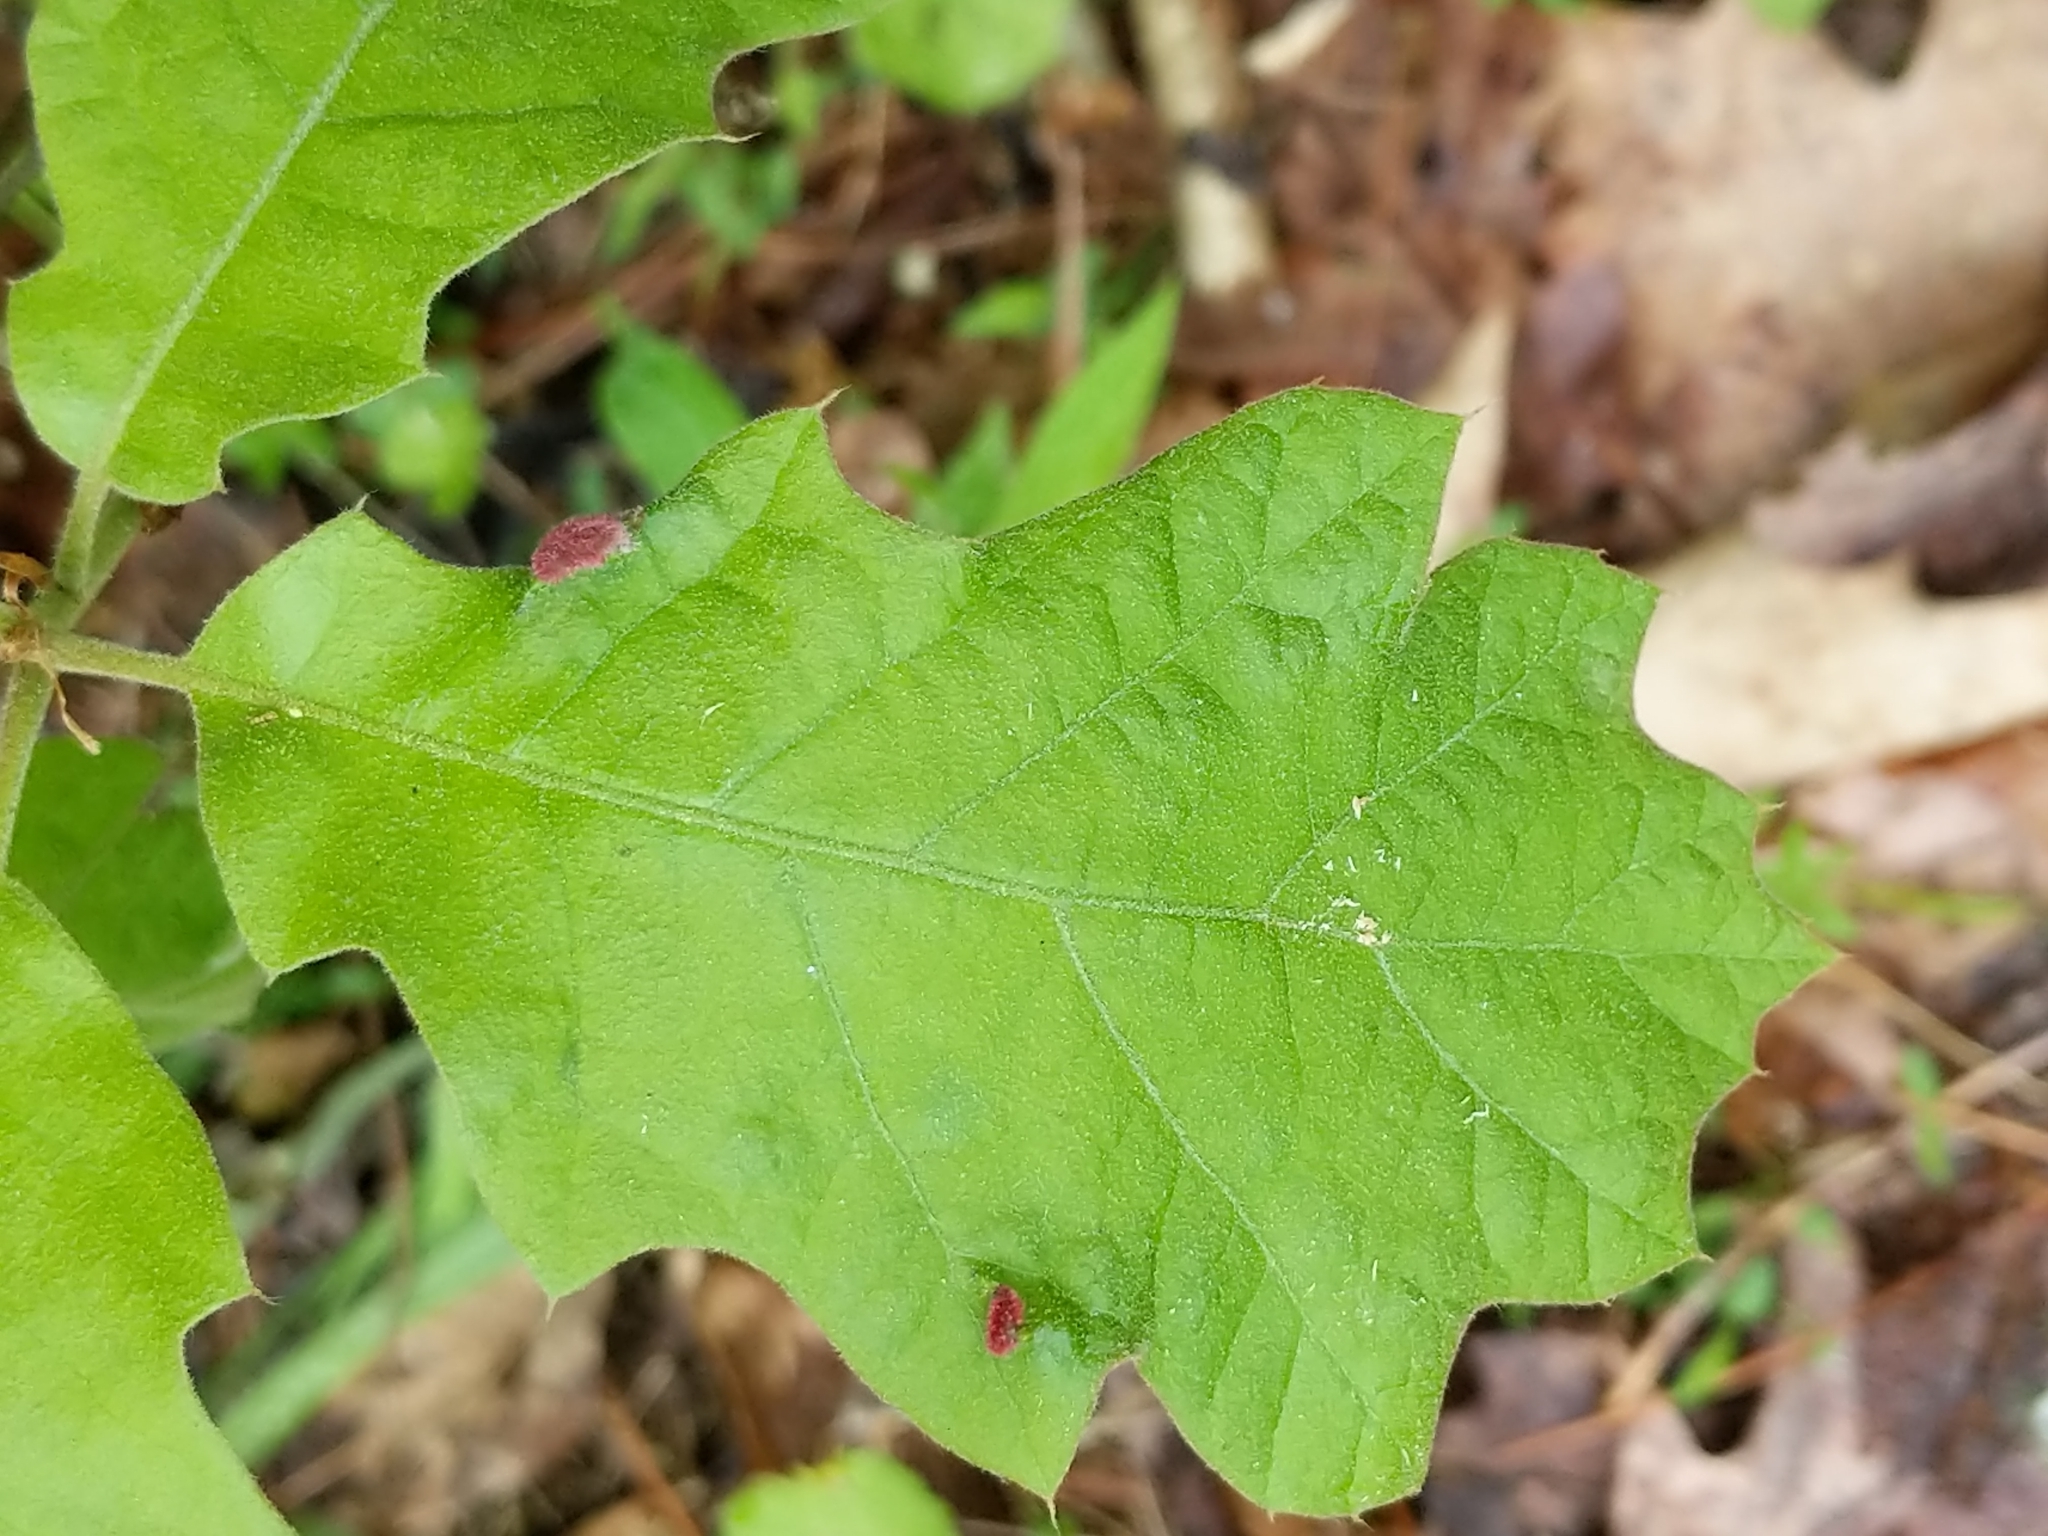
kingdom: Animalia
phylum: Arthropoda
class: Arachnida
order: Trombidiformes
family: Eriophyidae
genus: Aceria
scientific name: Aceria
